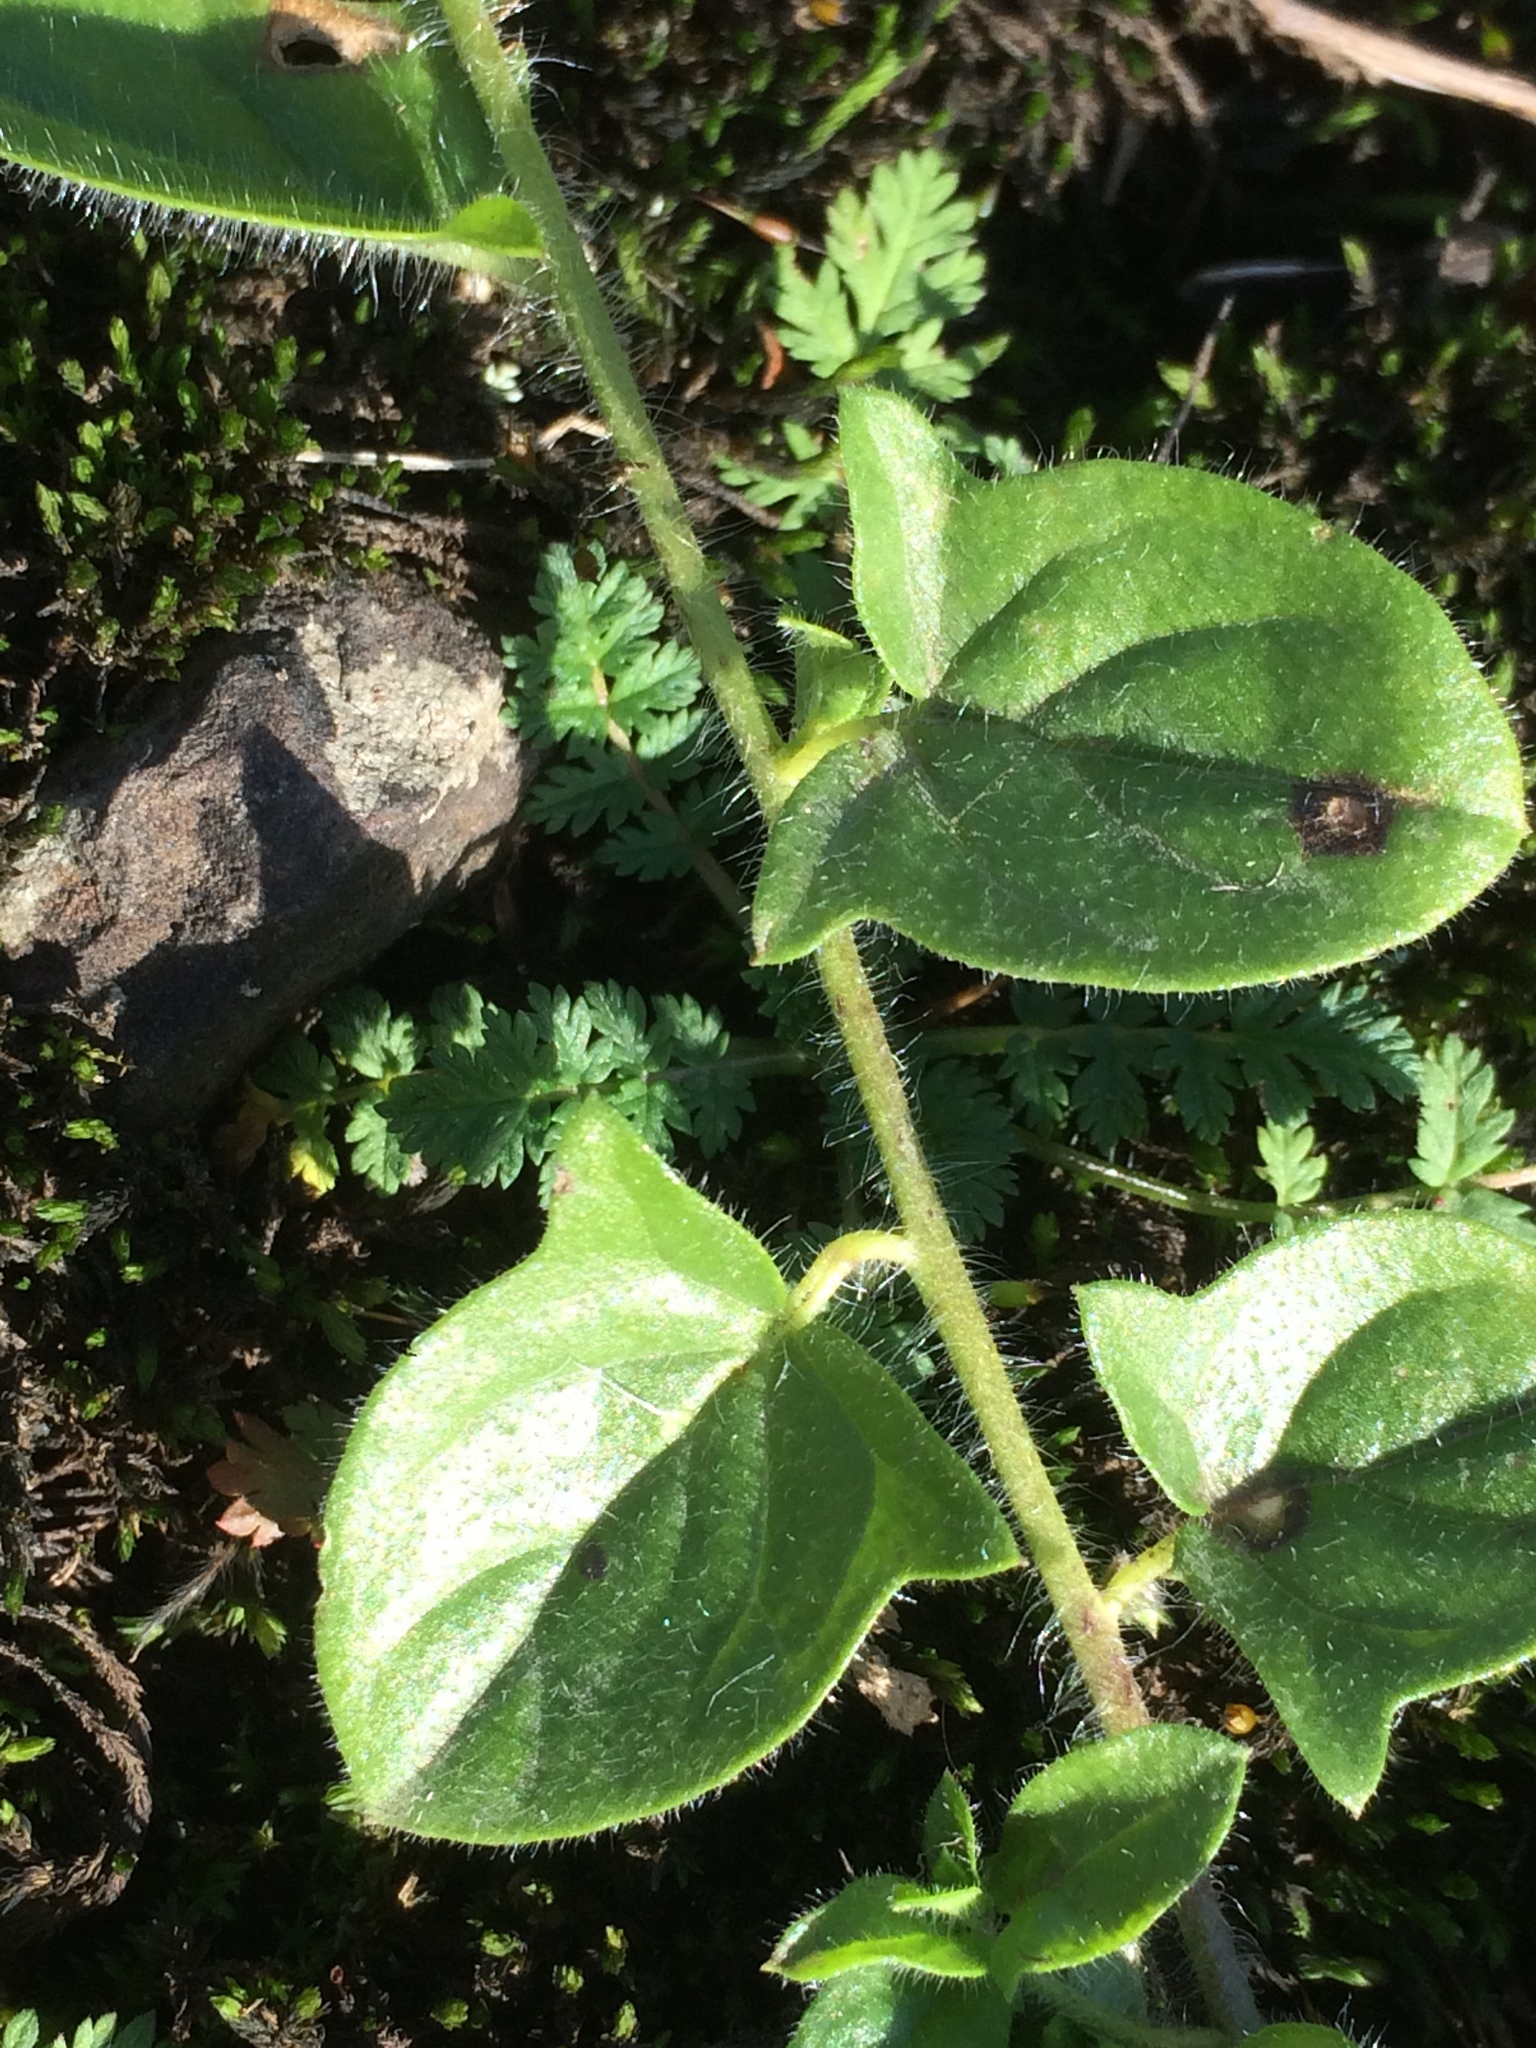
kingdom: Plantae
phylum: Tracheophyta
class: Magnoliopsida
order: Lamiales
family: Plantaginaceae
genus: Kickxia
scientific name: Kickxia elatine
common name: Sharp-leaved fluellen
